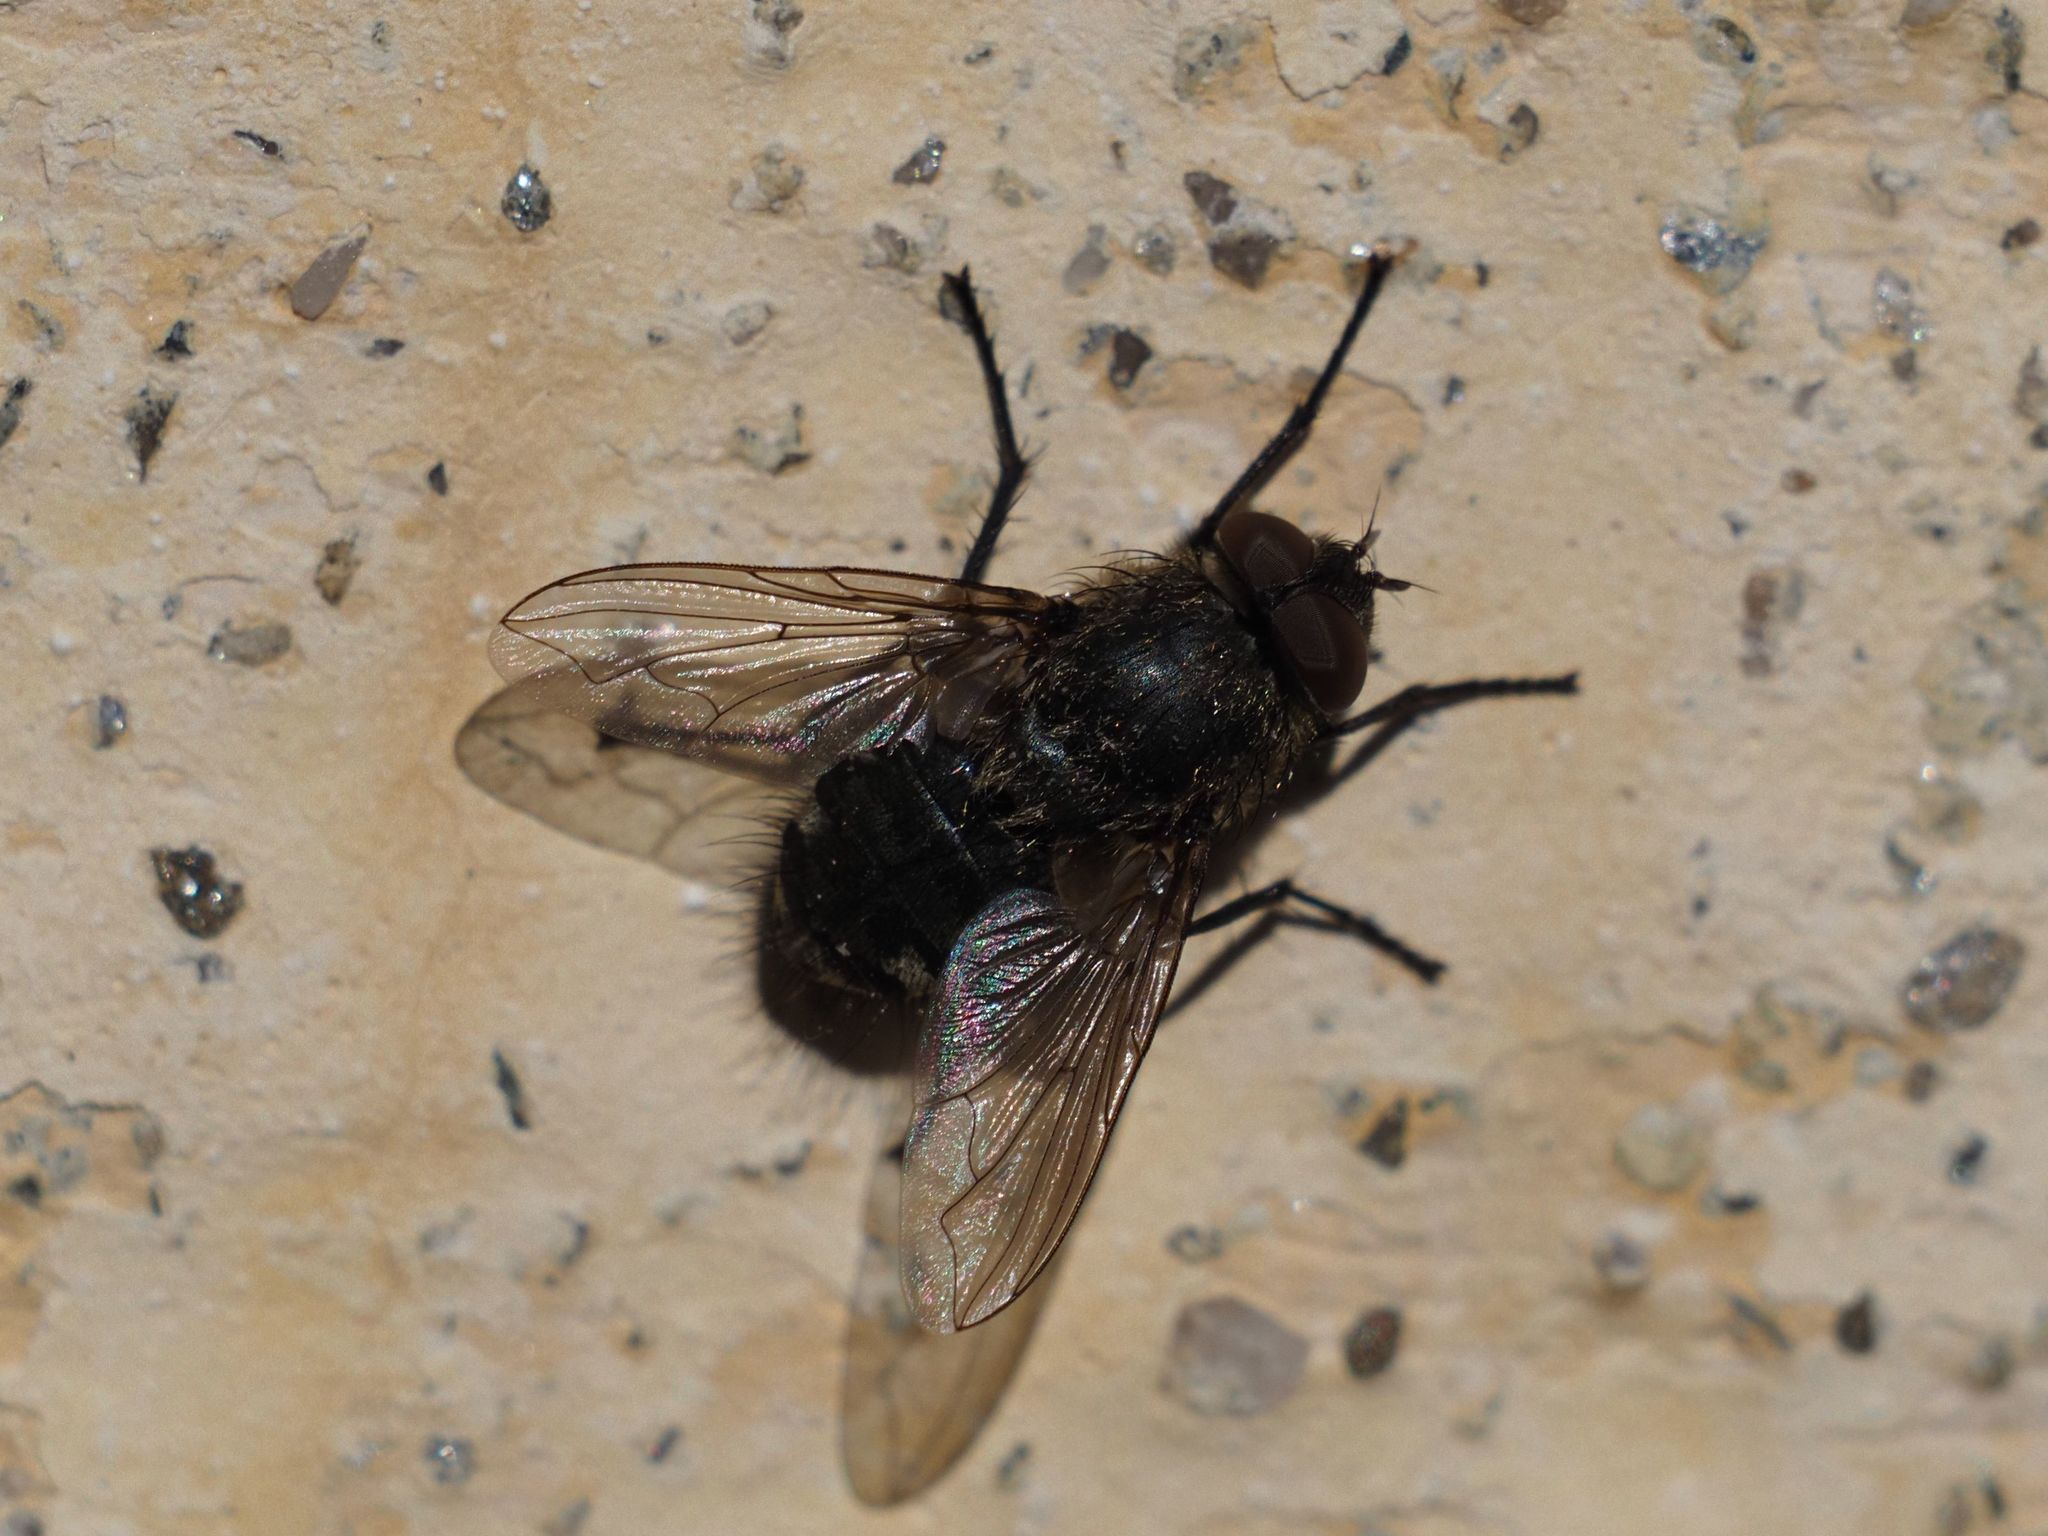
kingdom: Animalia
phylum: Arthropoda
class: Insecta
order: Diptera
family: Polleniidae
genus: Pollenia
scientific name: Pollenia intermedia
